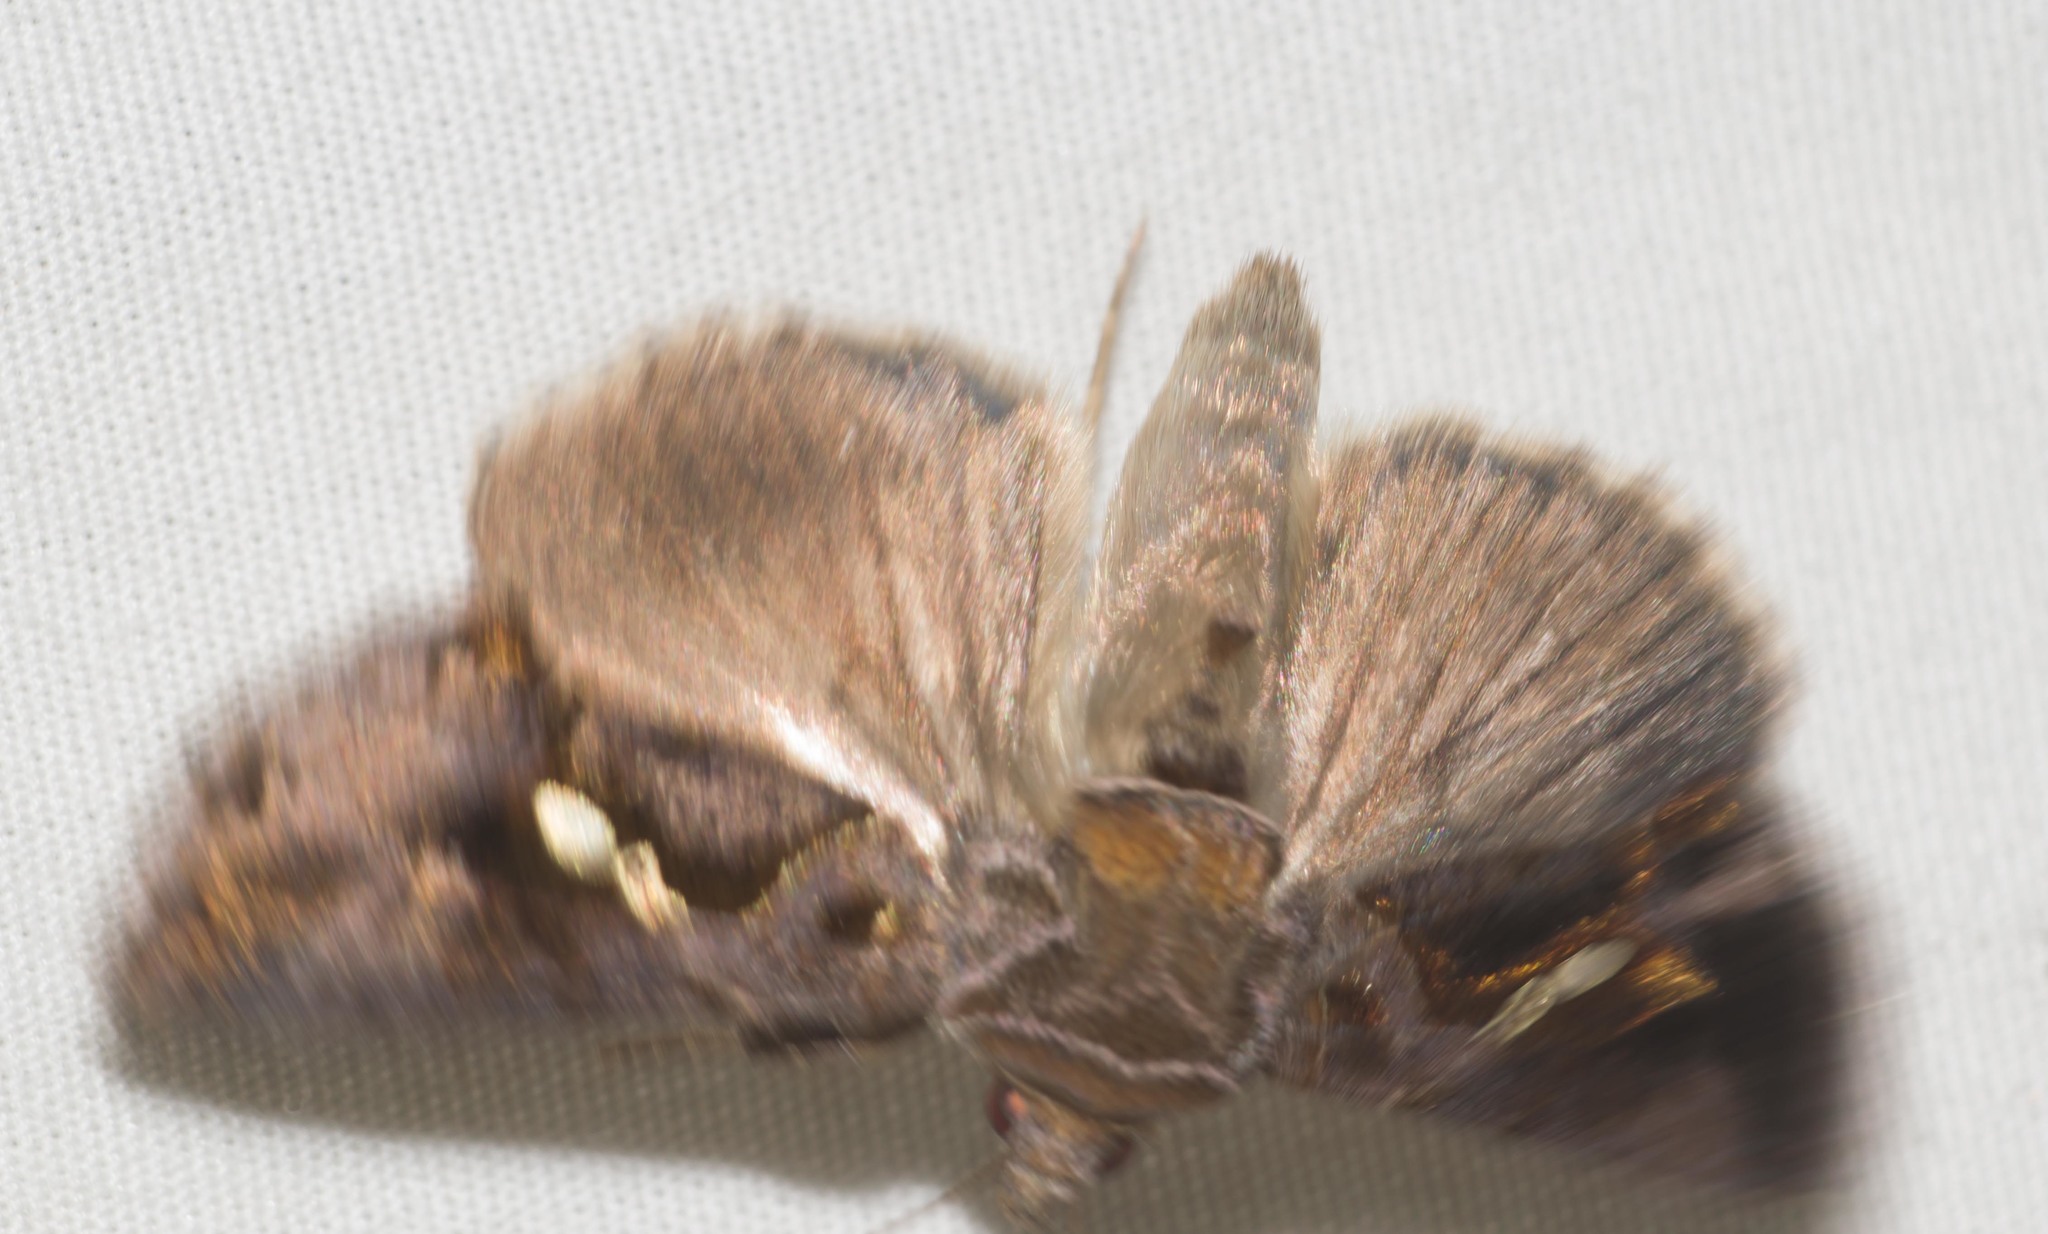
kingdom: Animalia
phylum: Arthropoda
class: Insecta
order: Lepidoptera
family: Noctuidae
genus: Chrysodeixis
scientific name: Chrysodeixis eriosoma
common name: Green garden looper
